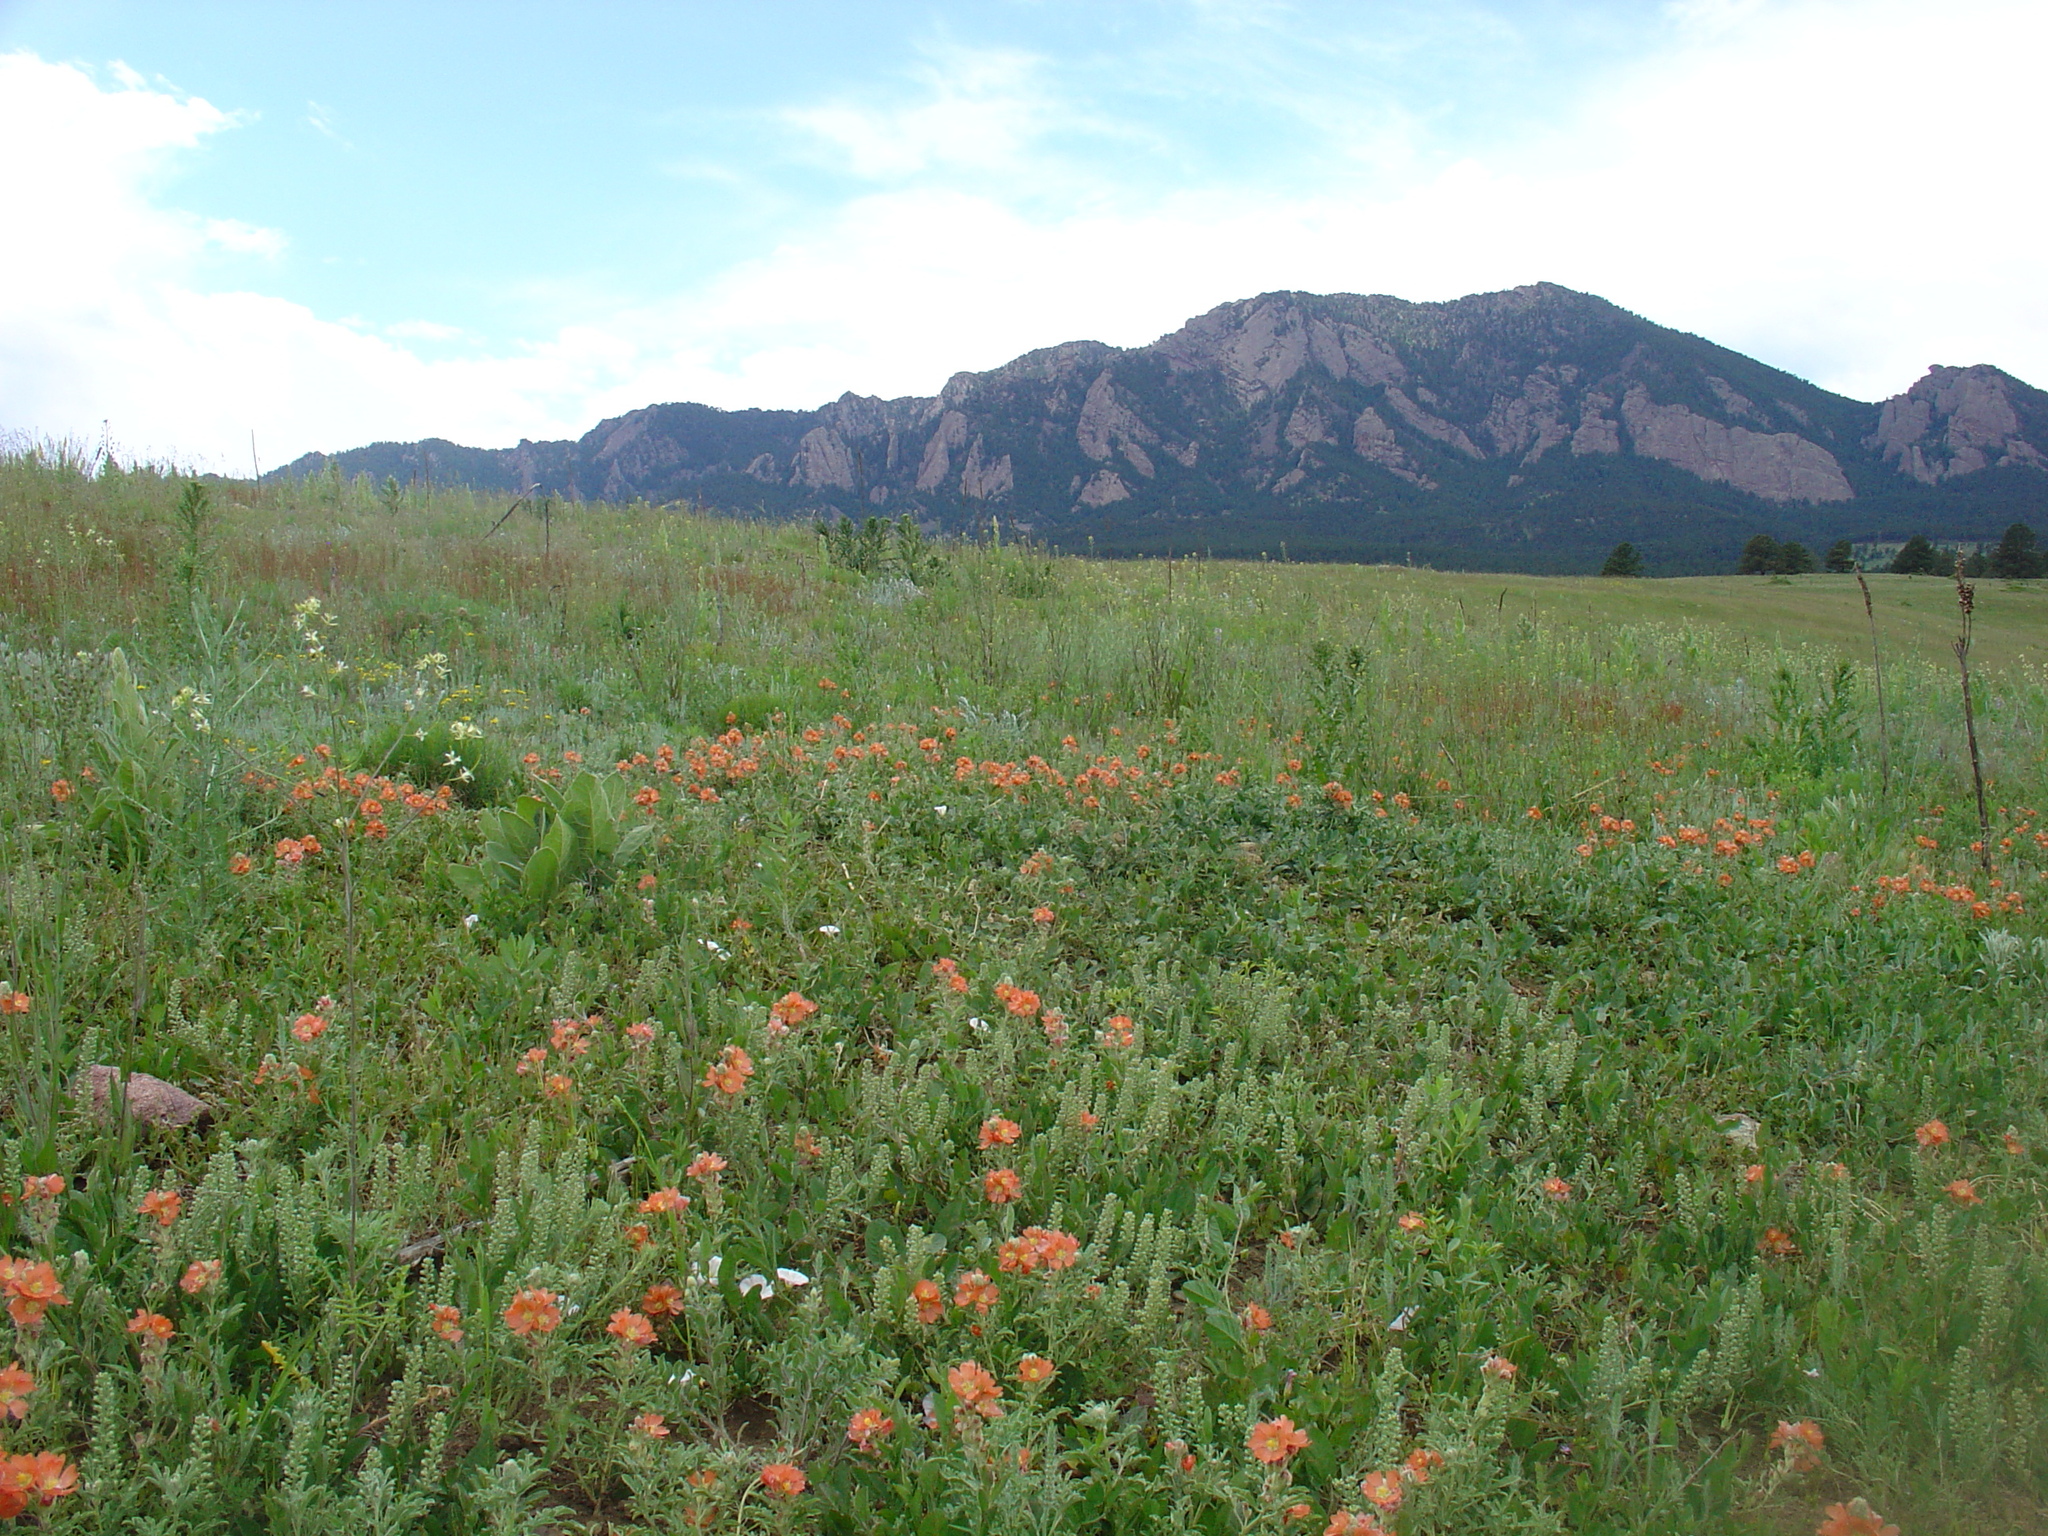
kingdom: Plantae
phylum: Tracheophyta
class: Magnoliopsida
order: Malvales
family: Malvaceae
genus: Sphaeralcea
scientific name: Sphaeralcea coccinea
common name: Moss-rose
